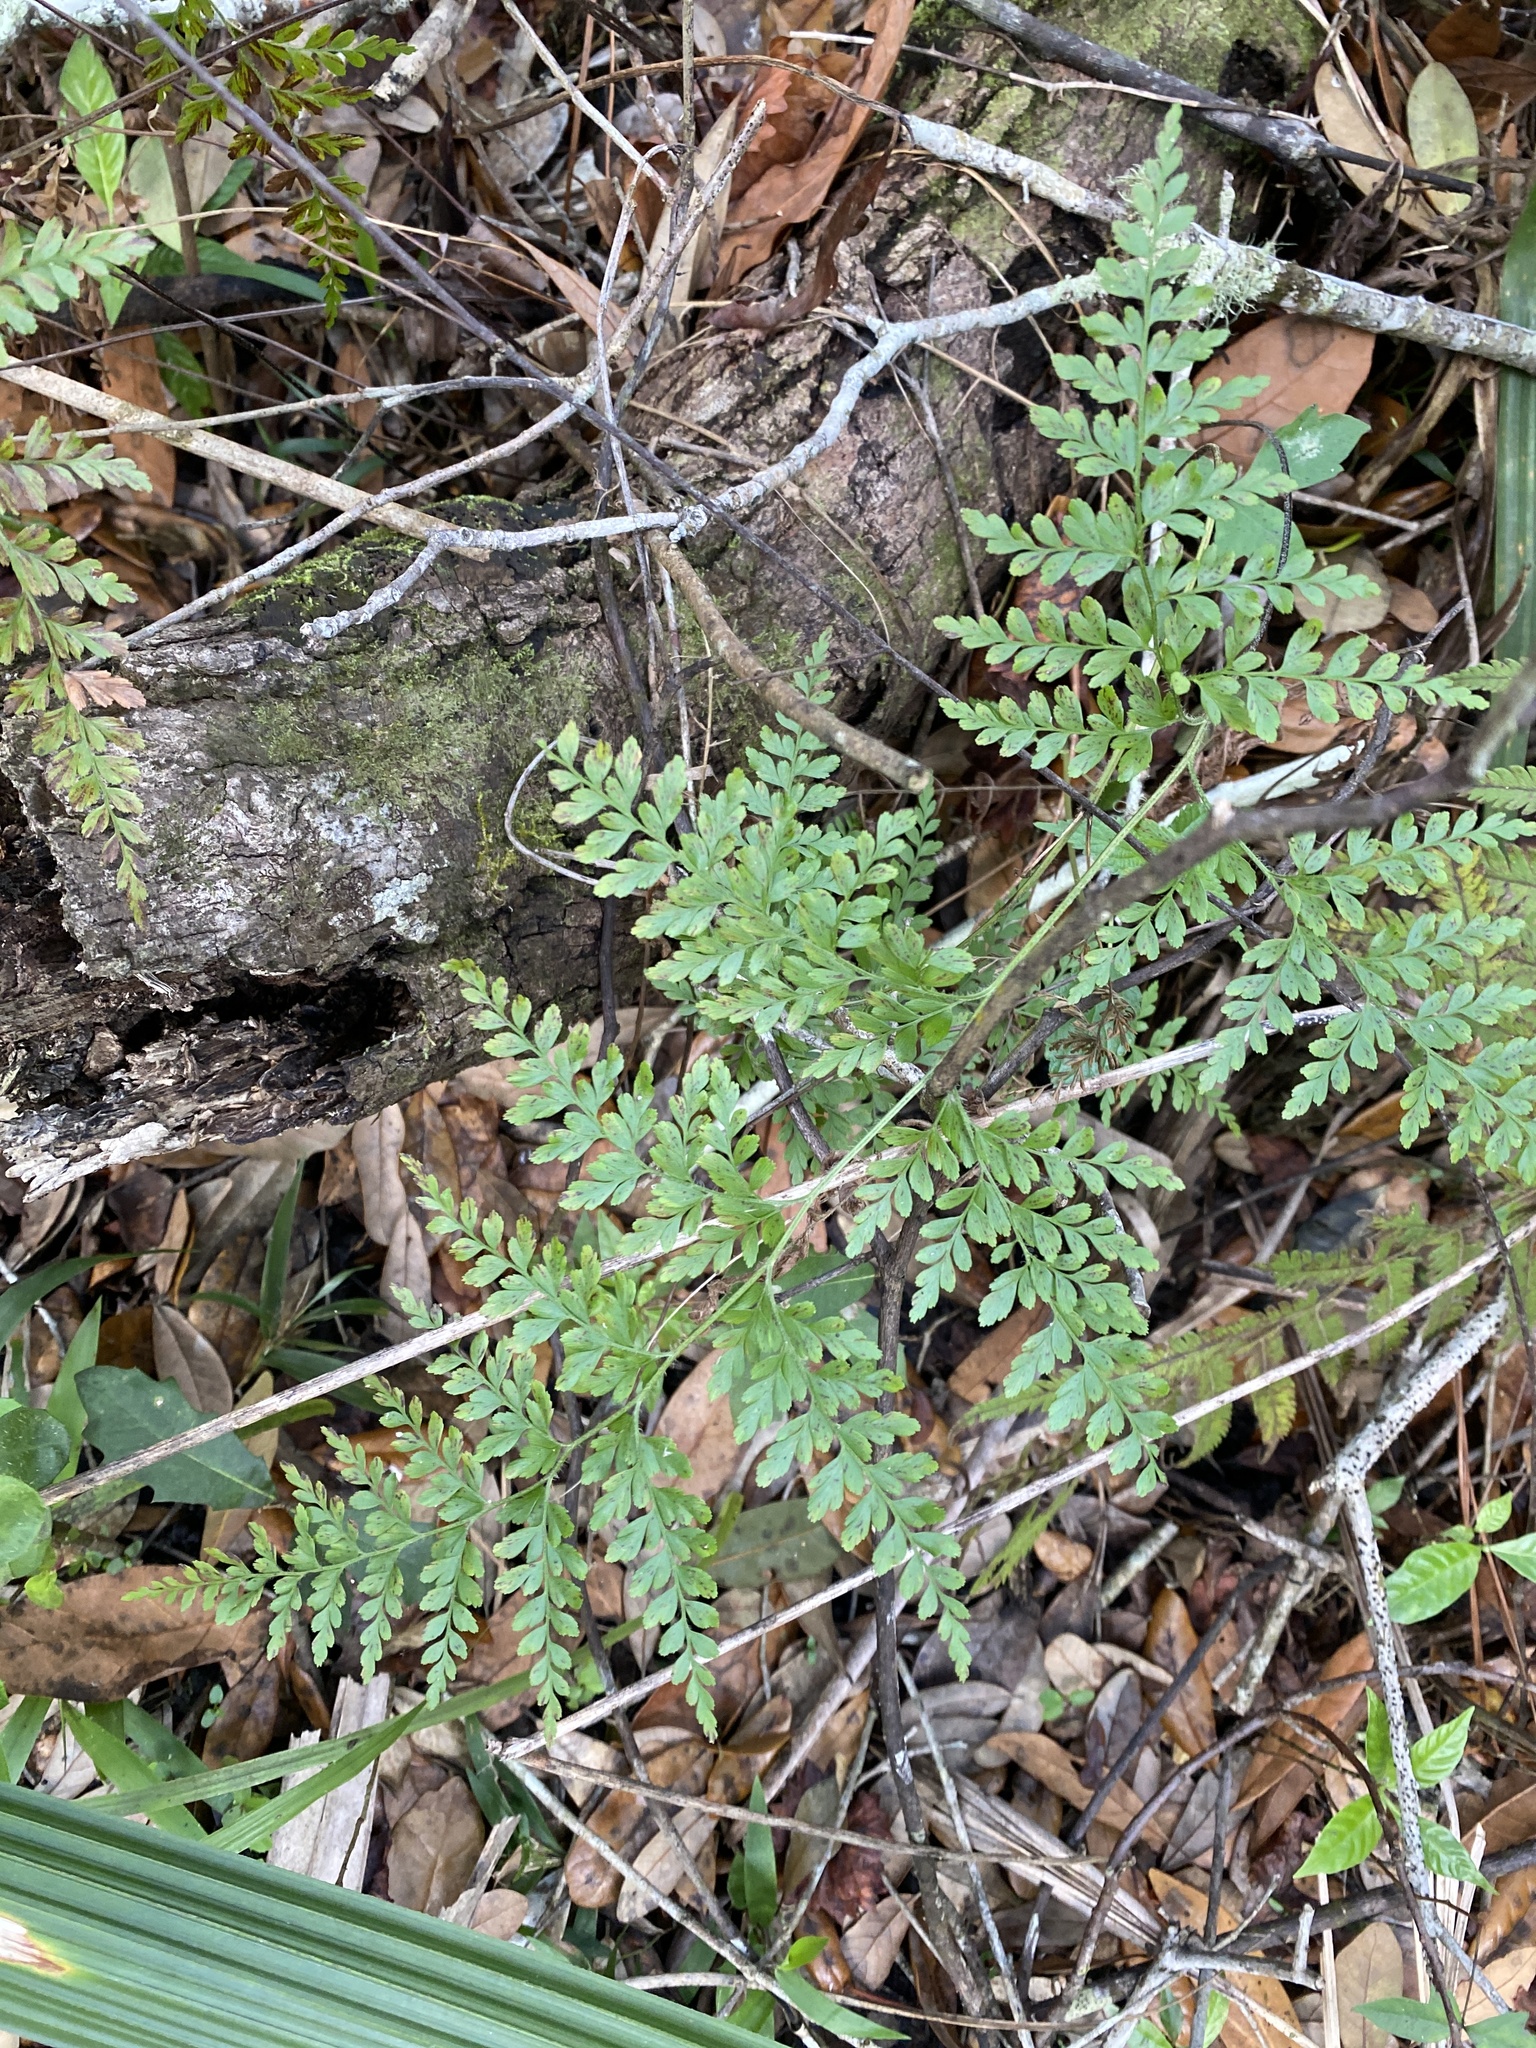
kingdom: Plantae
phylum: Tracheophyta
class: Polypodiopsida
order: Schizaeales
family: Anemiaceae
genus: Anemia
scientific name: Anemia adiantifolia
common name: Pine fern
